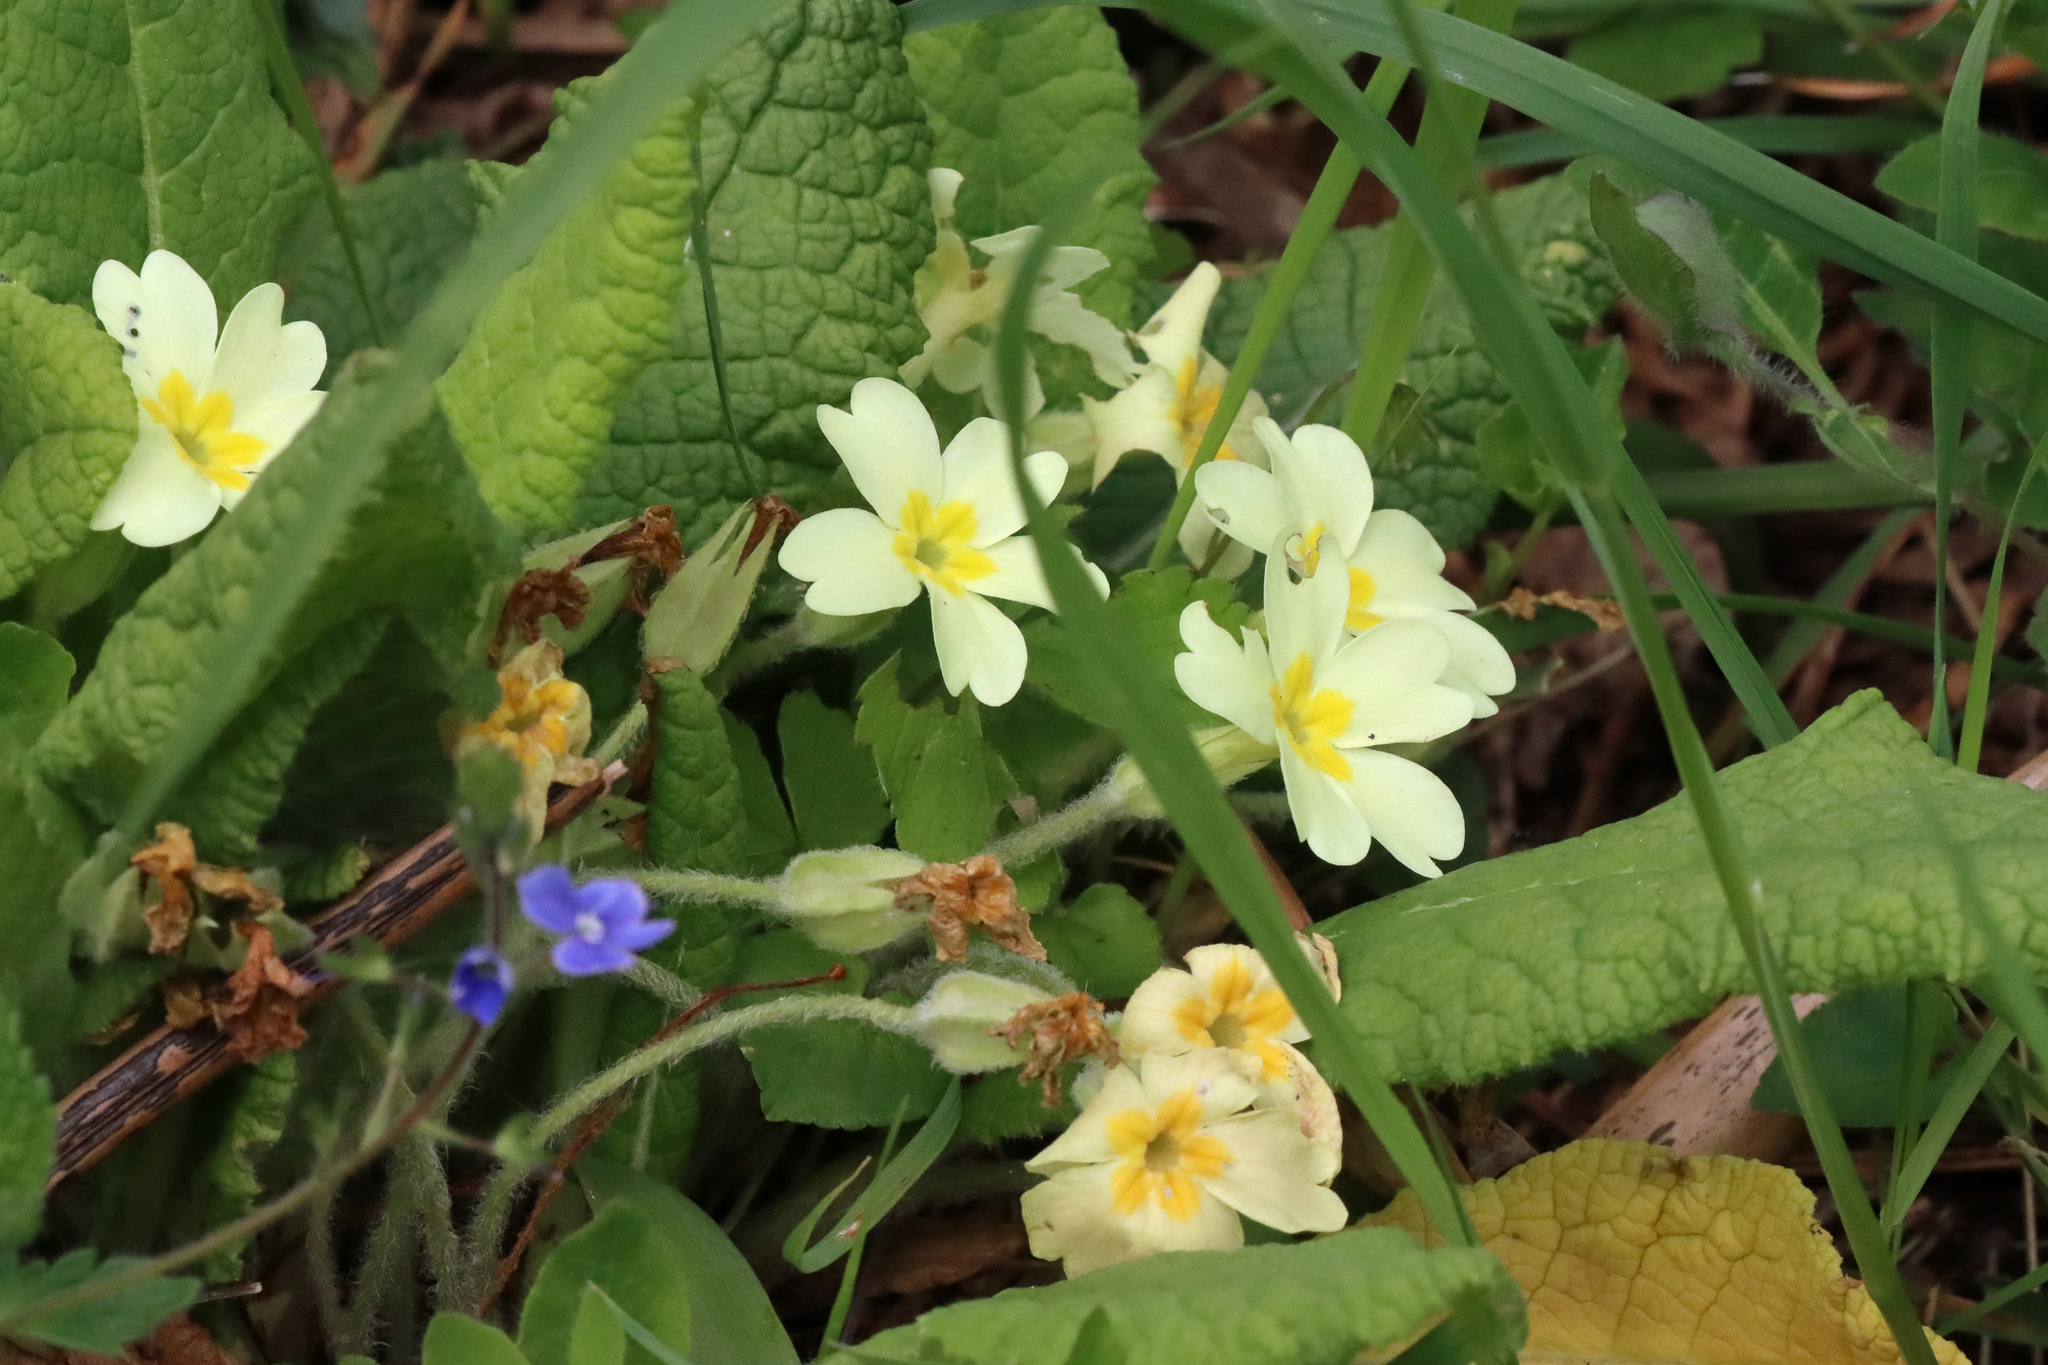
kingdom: Plantae
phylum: Tracheophyta
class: Magnoliopsida
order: Ericales
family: Primulaceae
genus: Primula
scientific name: Primula vulgaris
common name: Primrose
